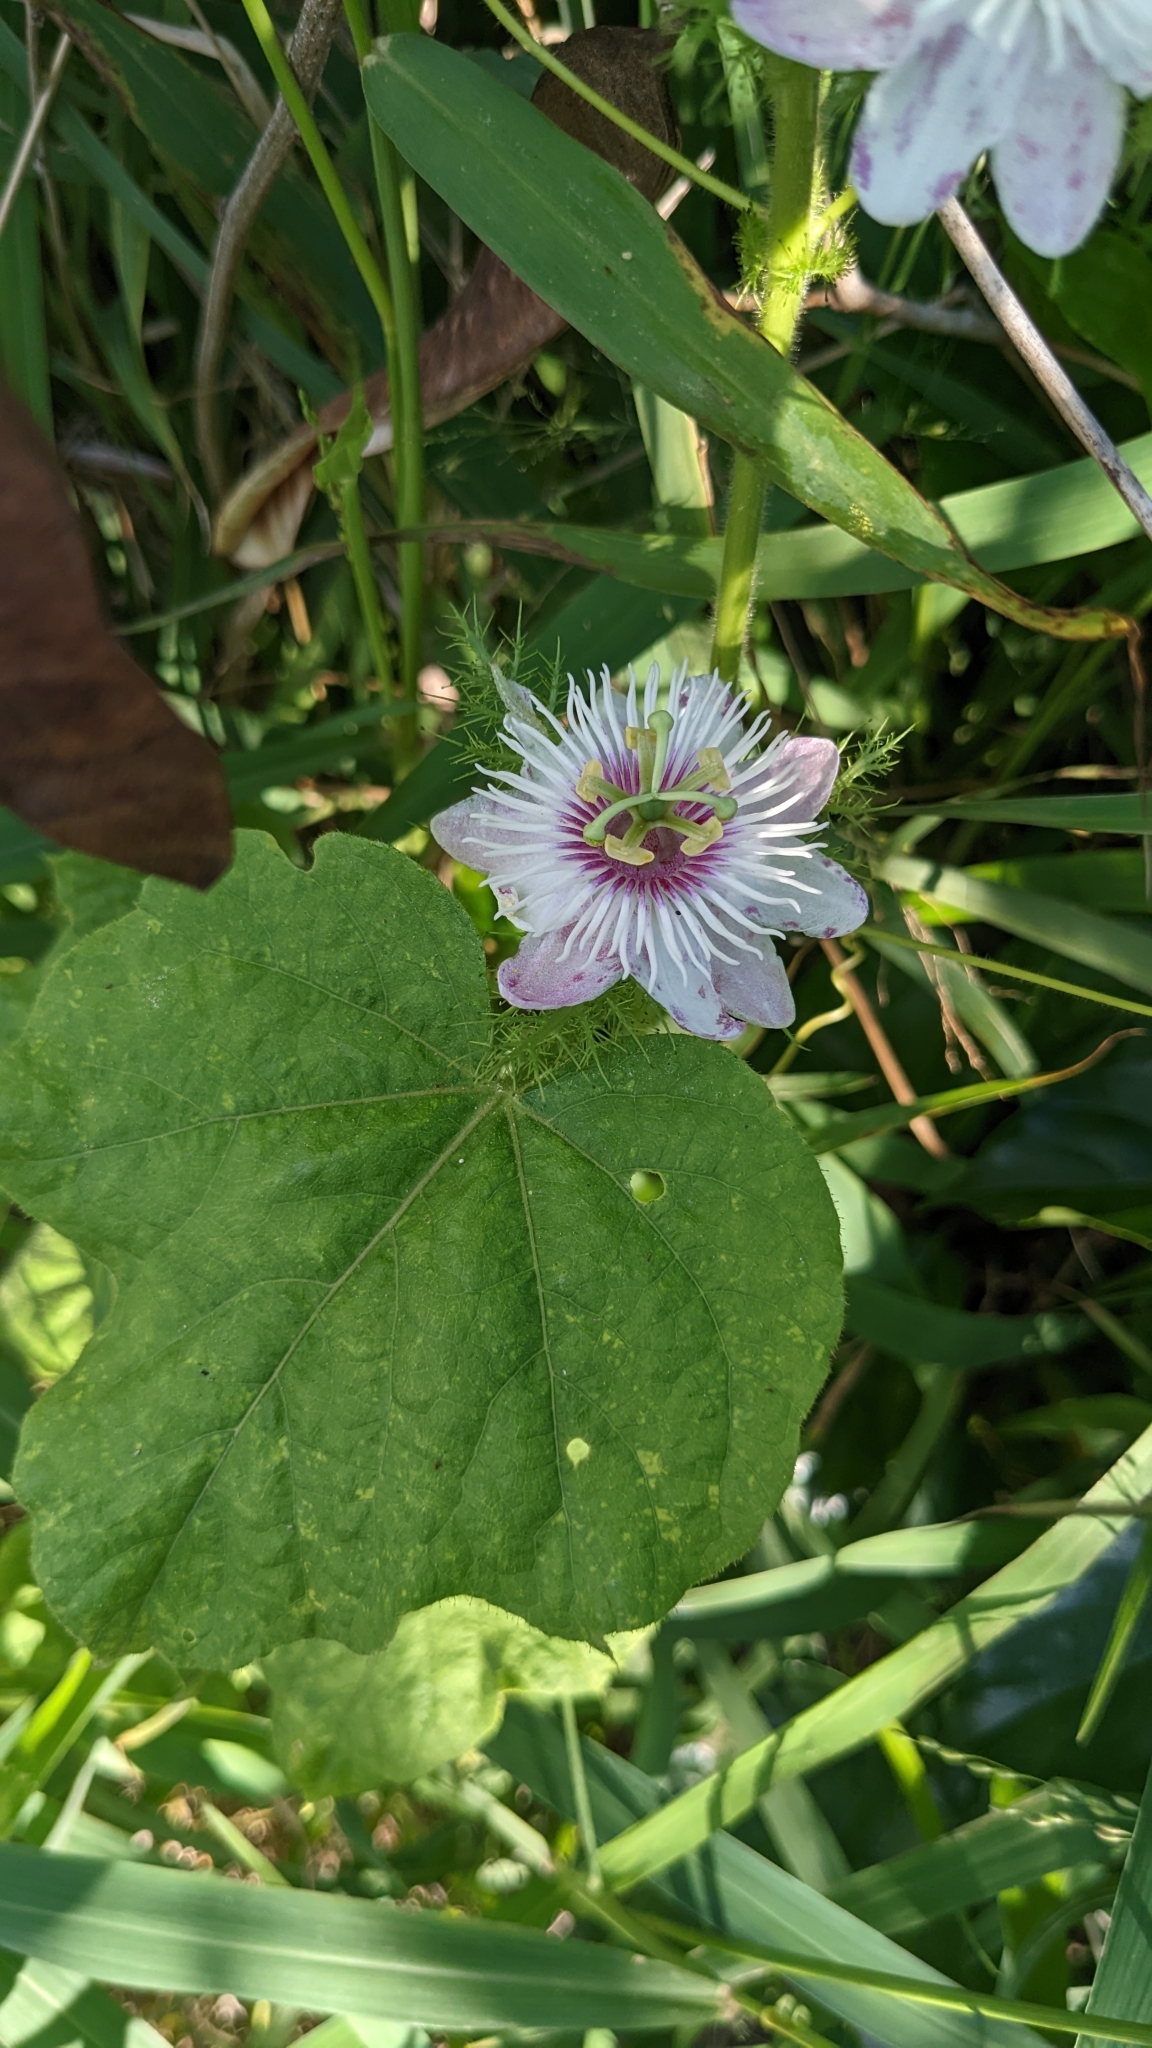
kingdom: Plantae
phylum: Tracheophyta
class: Magnoliopsida
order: Malpighiales
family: Passifloraceae
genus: Passiflora
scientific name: Passiflora vesicaria
